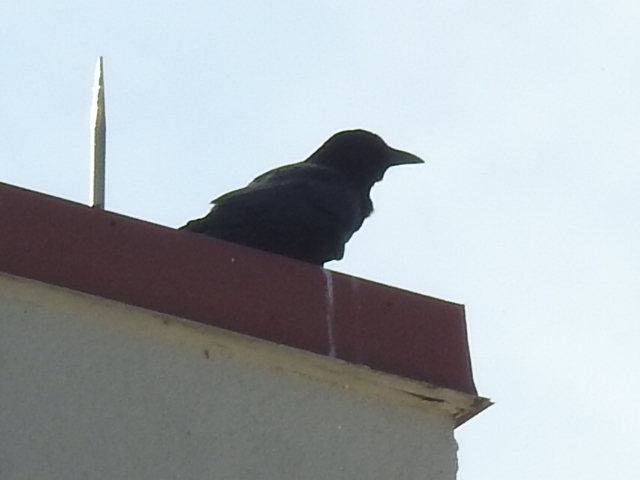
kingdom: Animalia
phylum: Chordata
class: Aves
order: Passeriformes
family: Corvidae
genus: Corvus
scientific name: Corvus brachyrhynchos
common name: American crow
